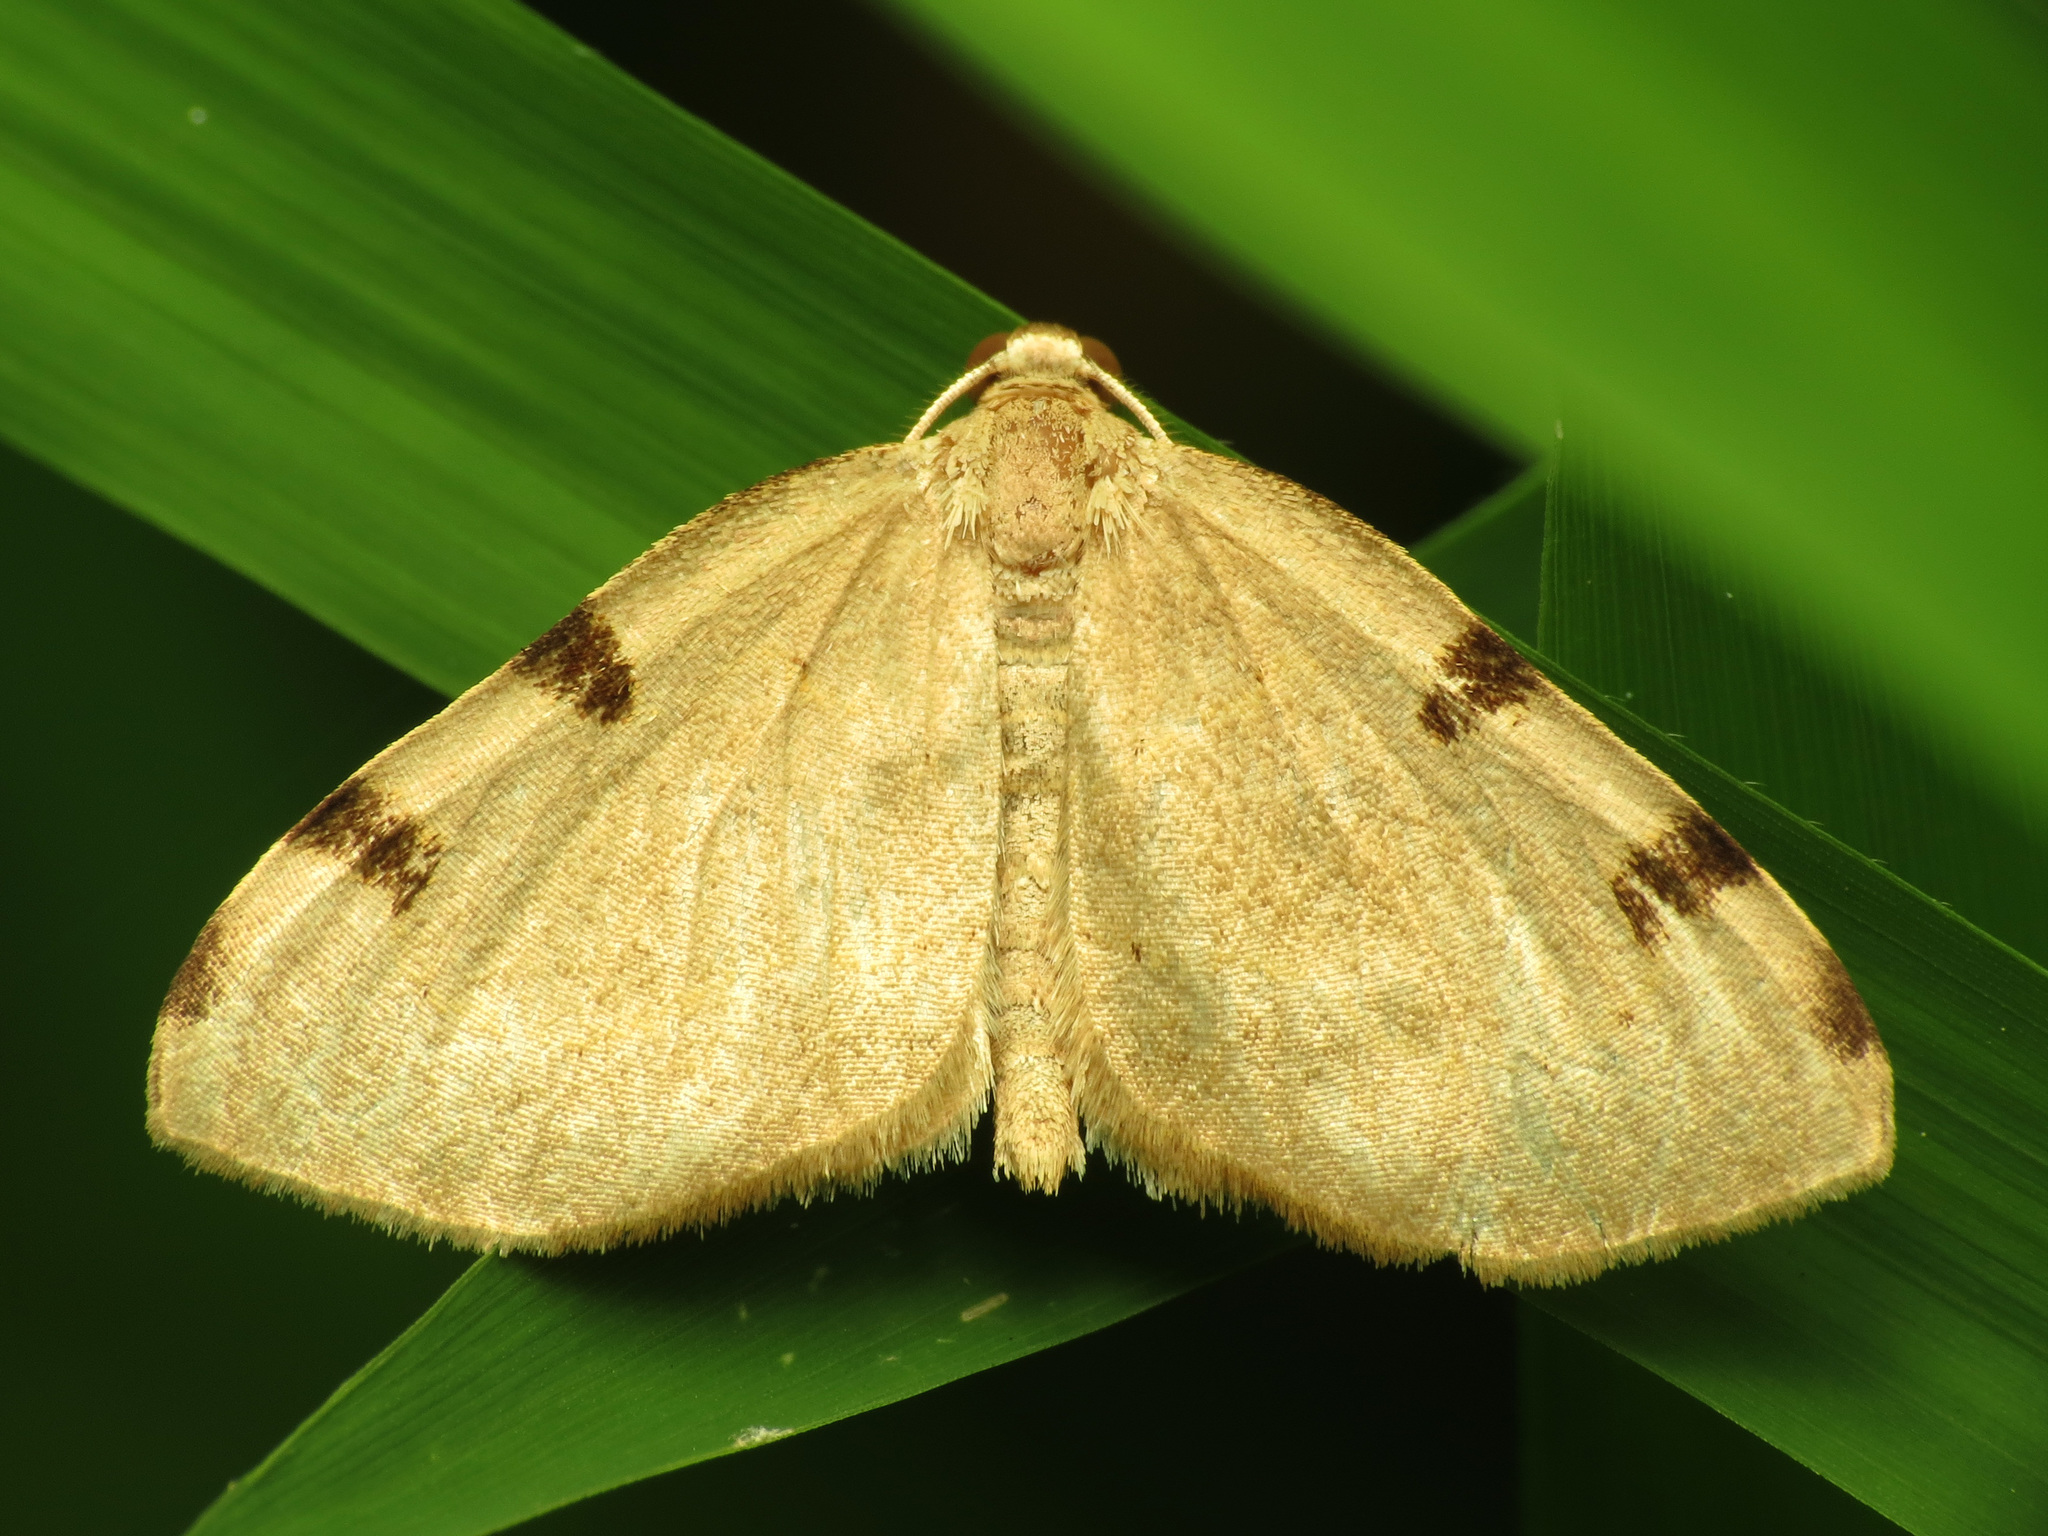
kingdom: Animalia
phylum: Arthropoda
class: Insecta
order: Lepidoptera
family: Geometridae
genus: Heterophleps
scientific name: Heterophleps triguttaria
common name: Three-spotted fillip
